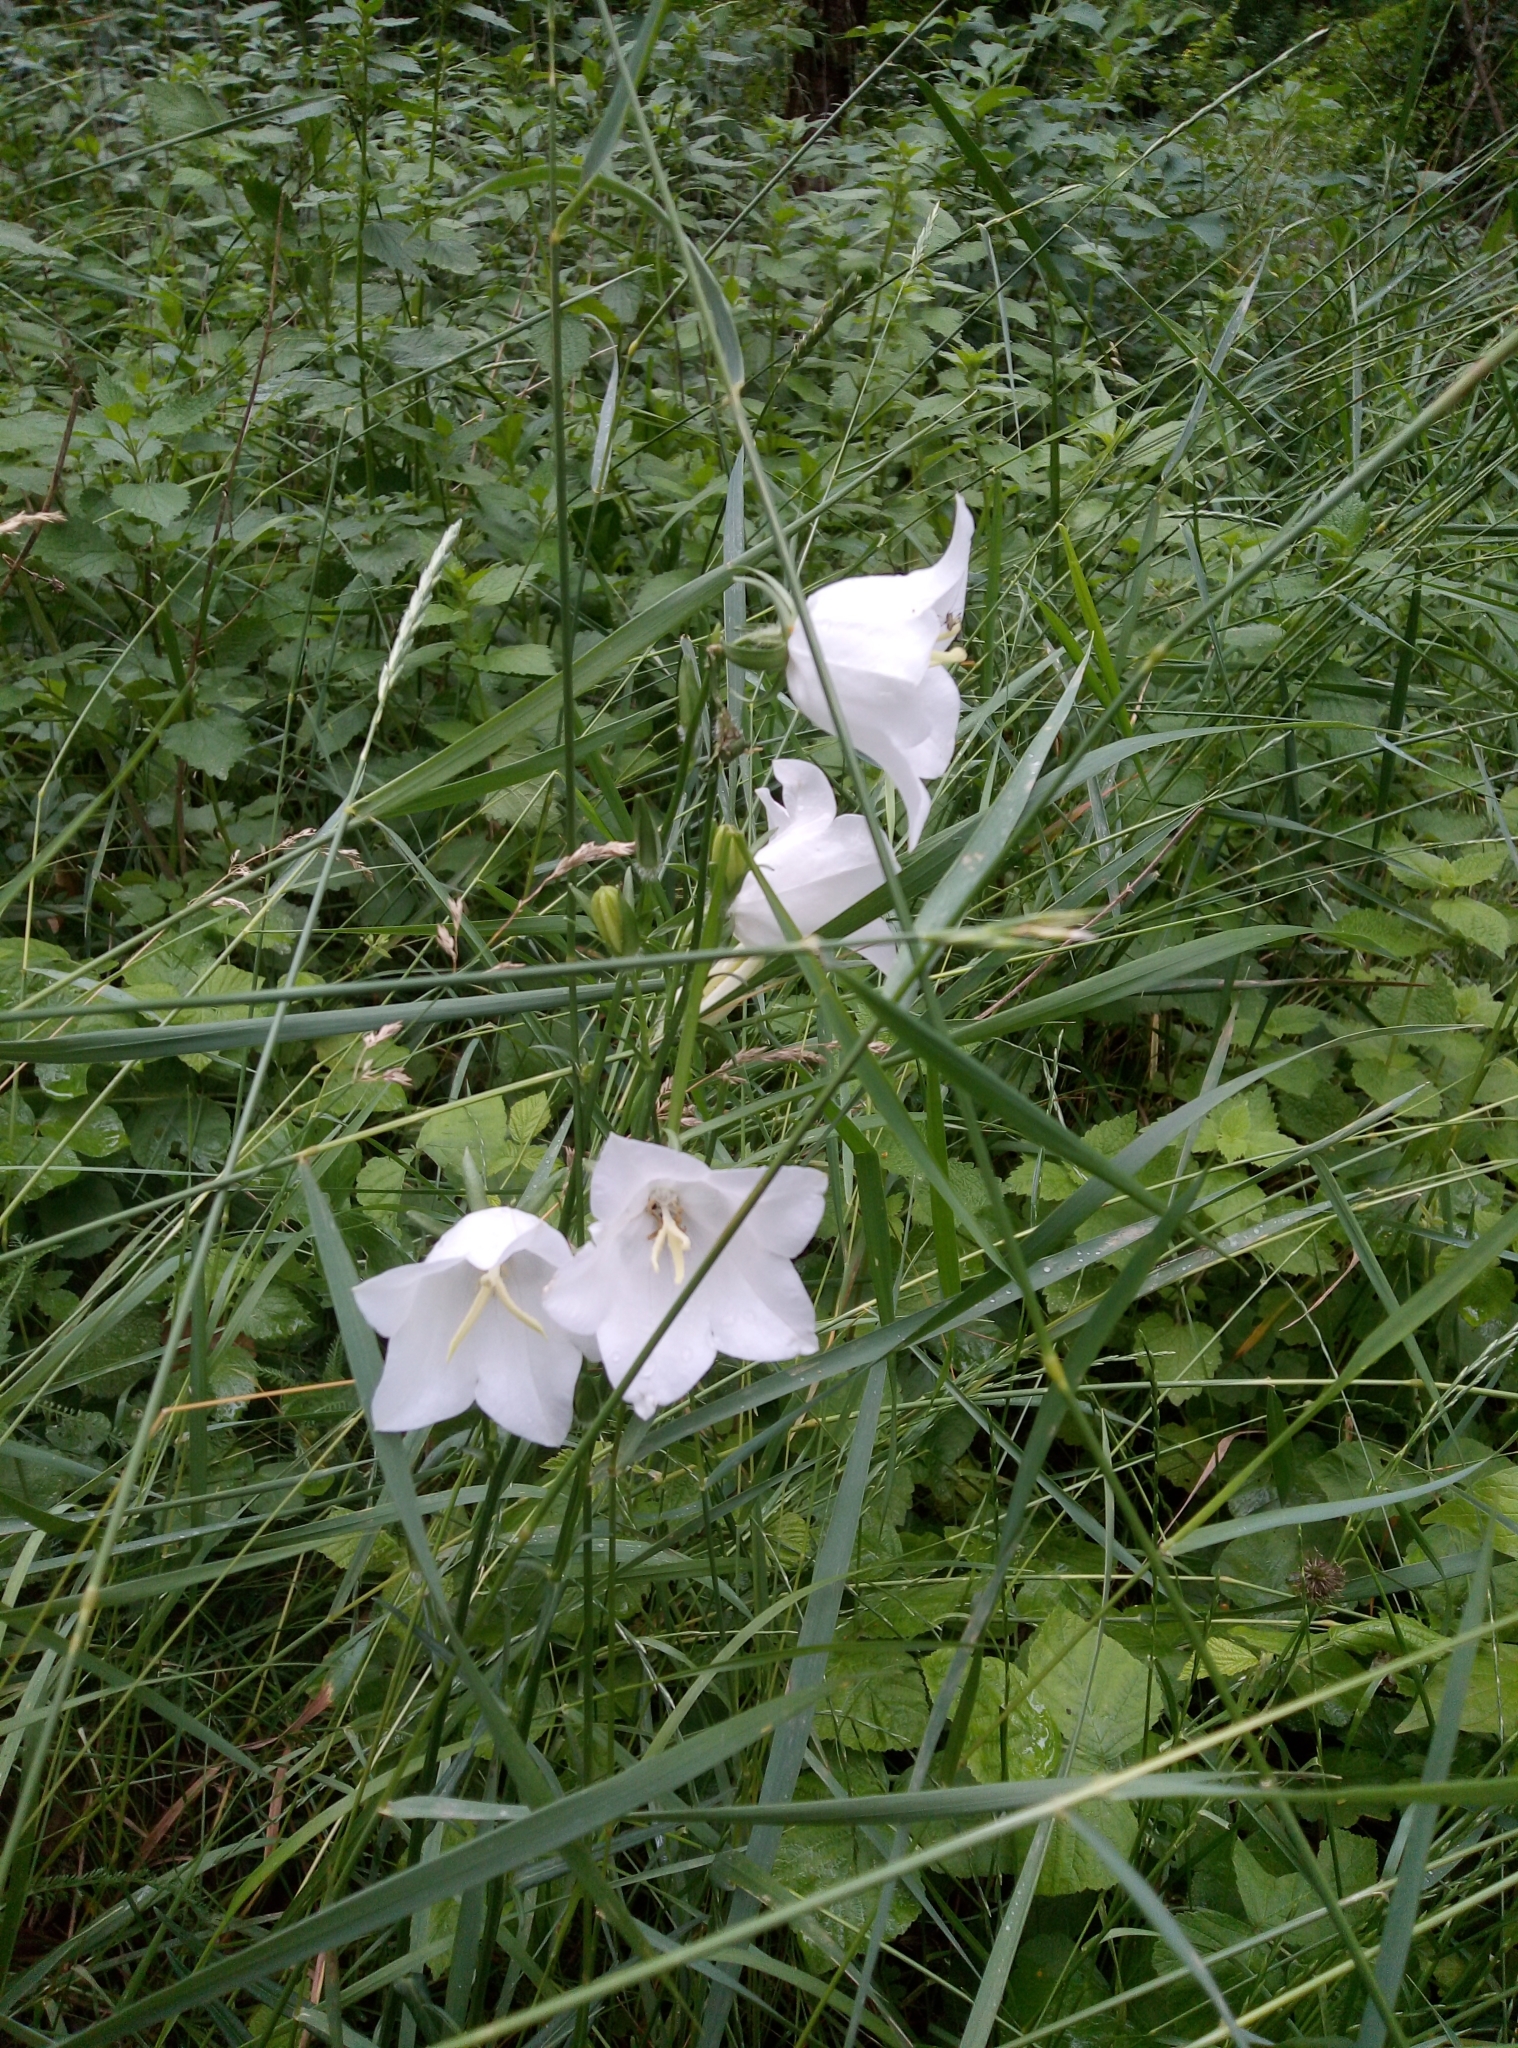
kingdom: Plantae
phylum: Tracheophyta
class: Magnoliopsida
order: Asterales
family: Campanulaceae
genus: Campanula
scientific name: Campanula persicifolia
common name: Peach-leaved bellflower
